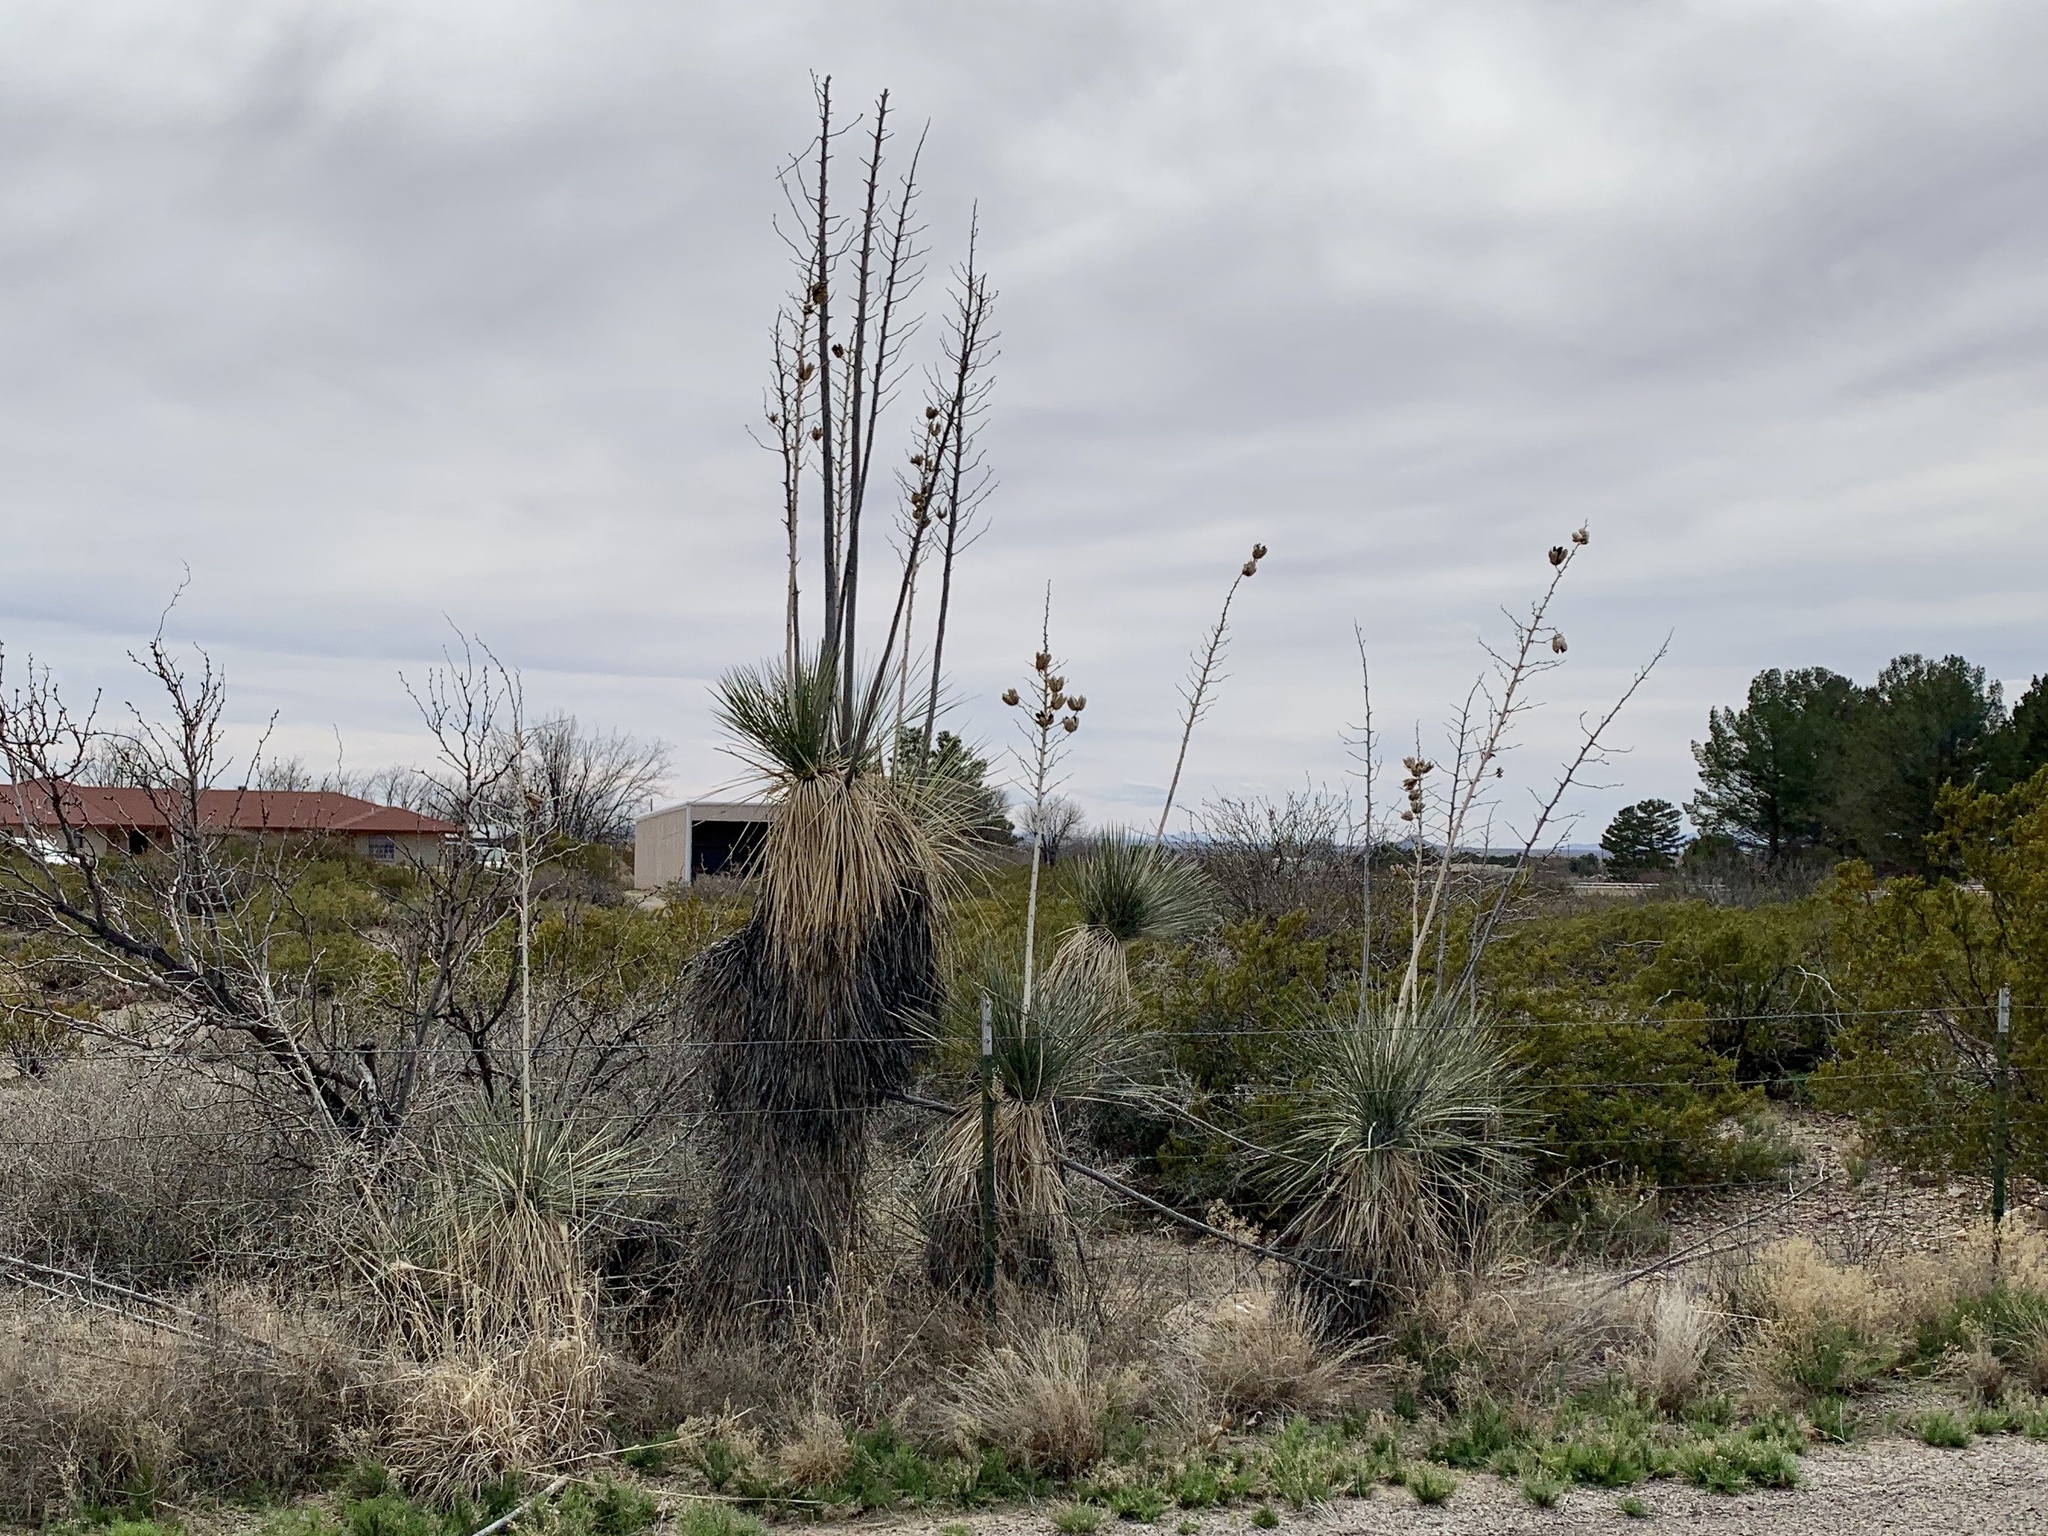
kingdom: Plantae
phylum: Tracheophyta
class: Liliopsida
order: Asparagales
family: Asparagaceae
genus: Yucca
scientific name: Yucca elata
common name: Palmella
